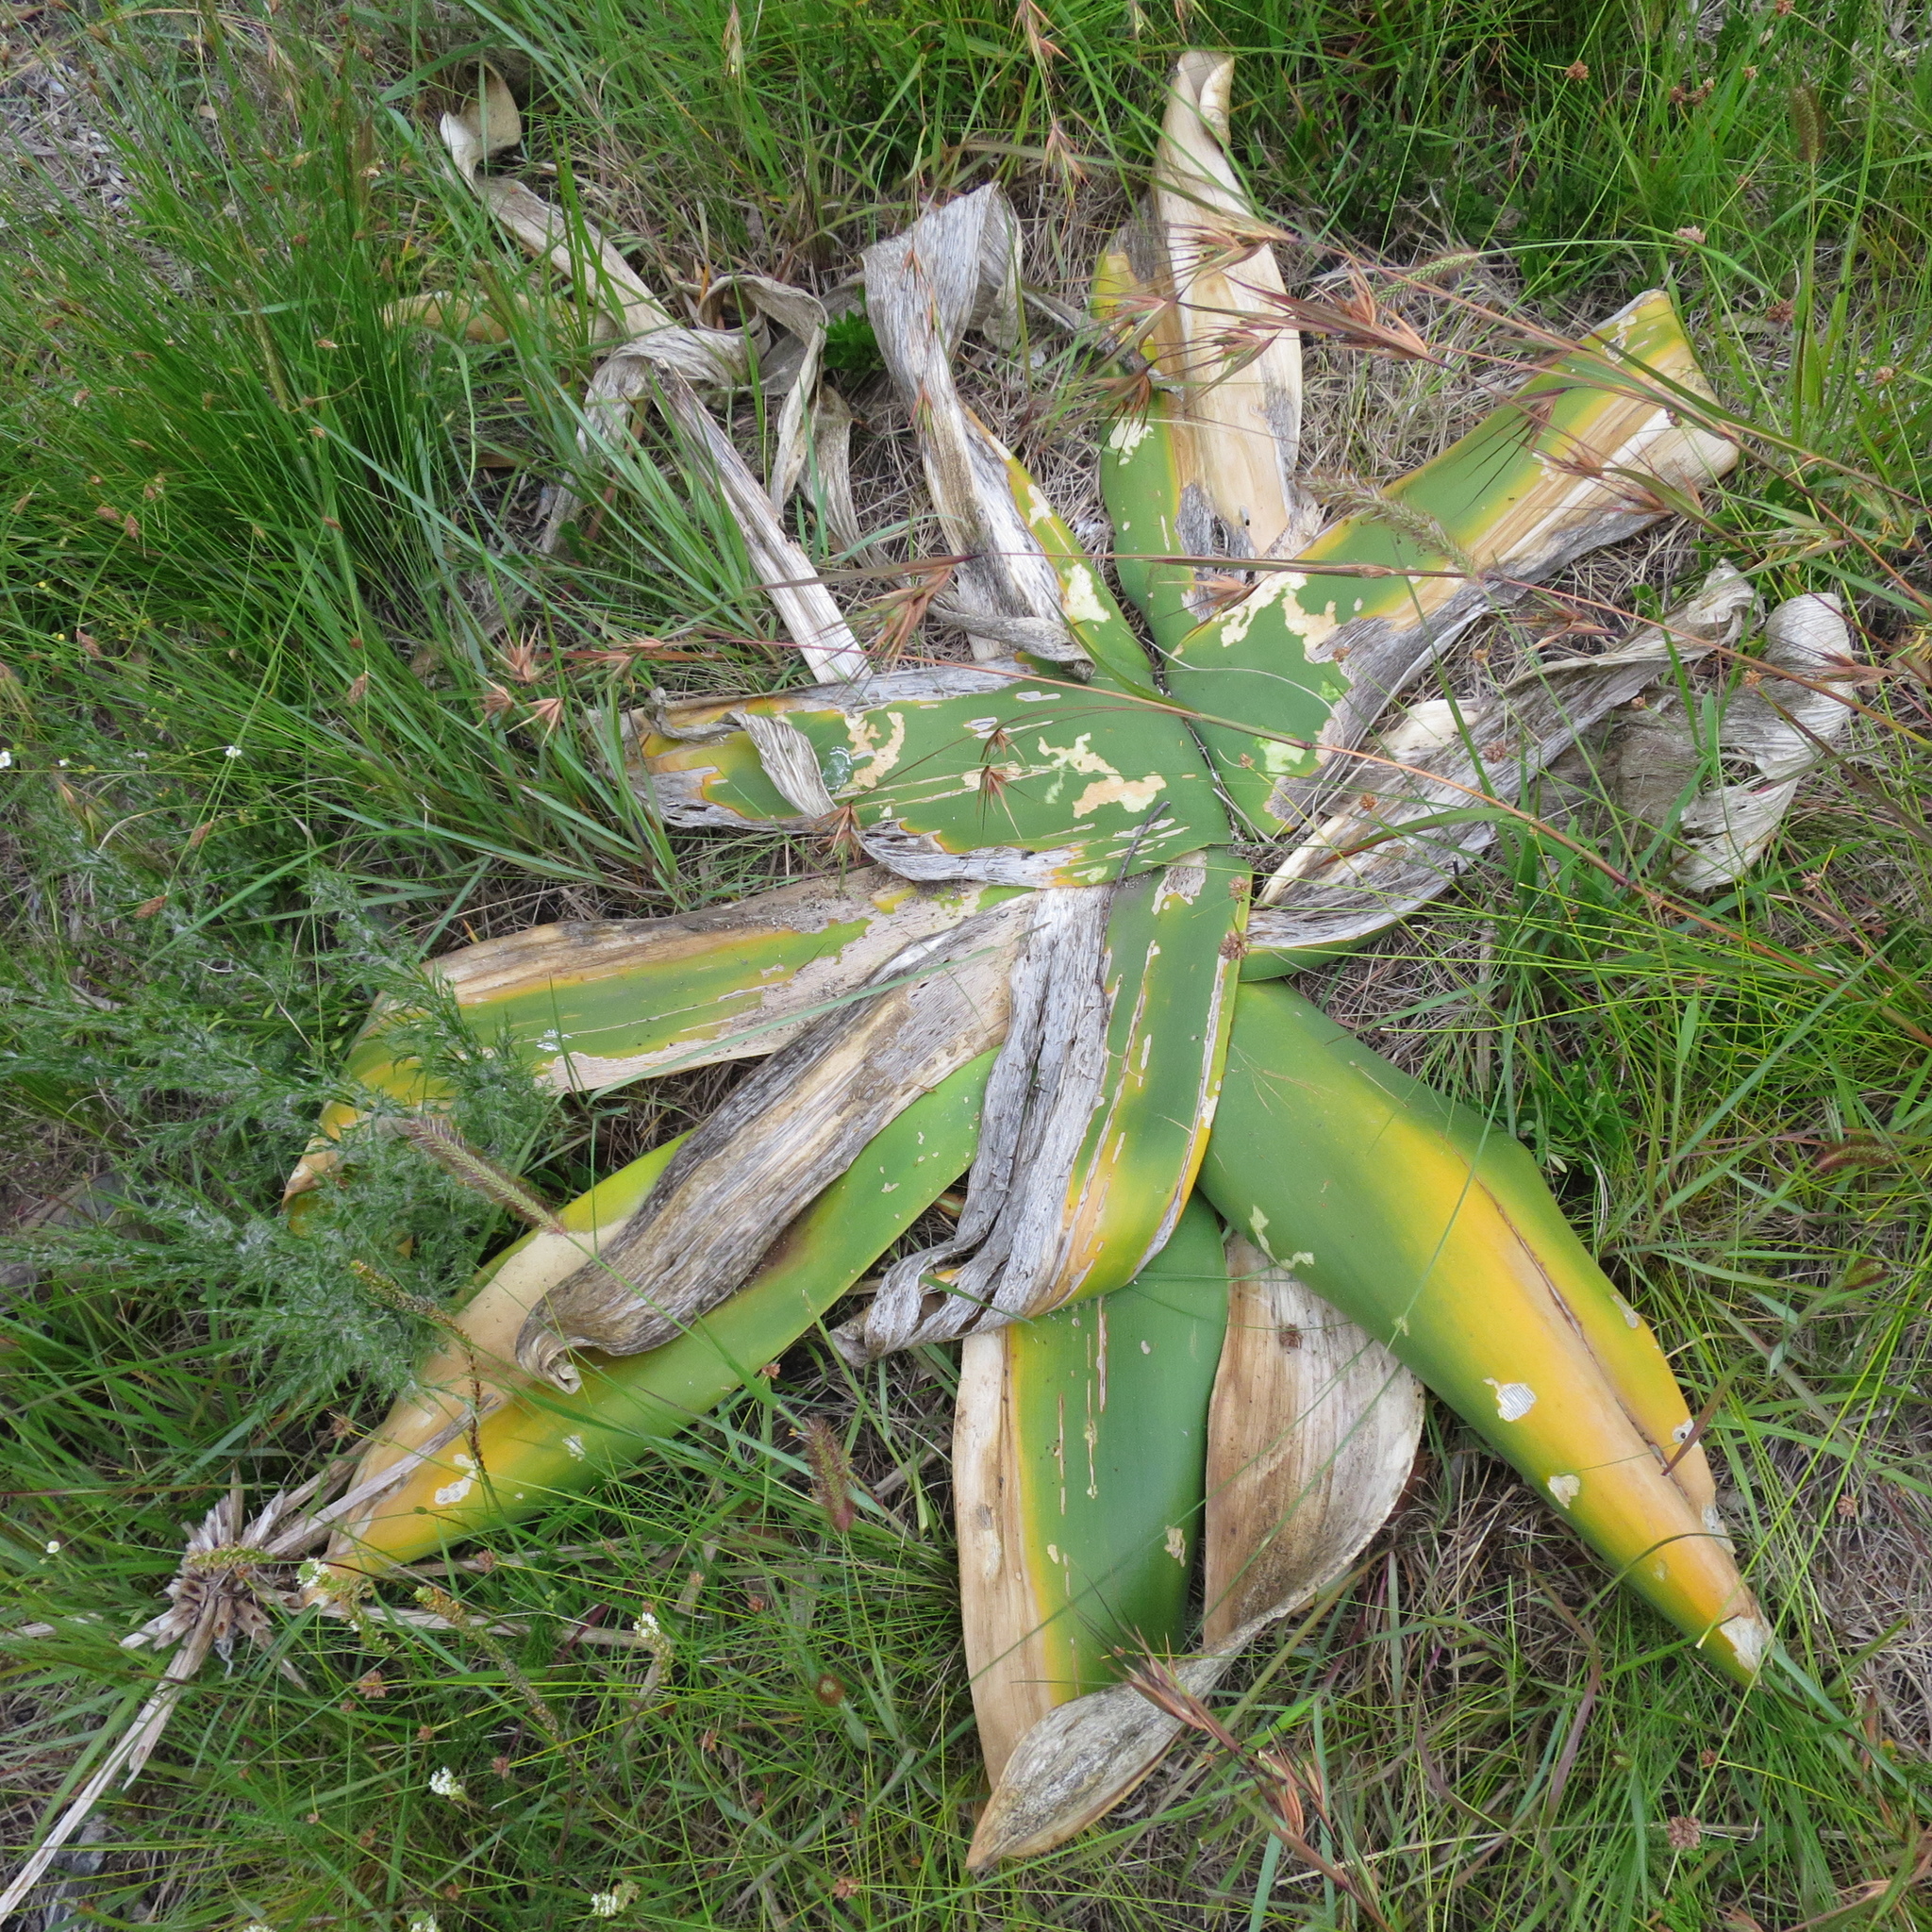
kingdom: Plantae
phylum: Tracheophyta
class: Liliopsida
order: Asparagales
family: Amaryllidaceae
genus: Brunsvigia
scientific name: Brunsvigia orientalis
